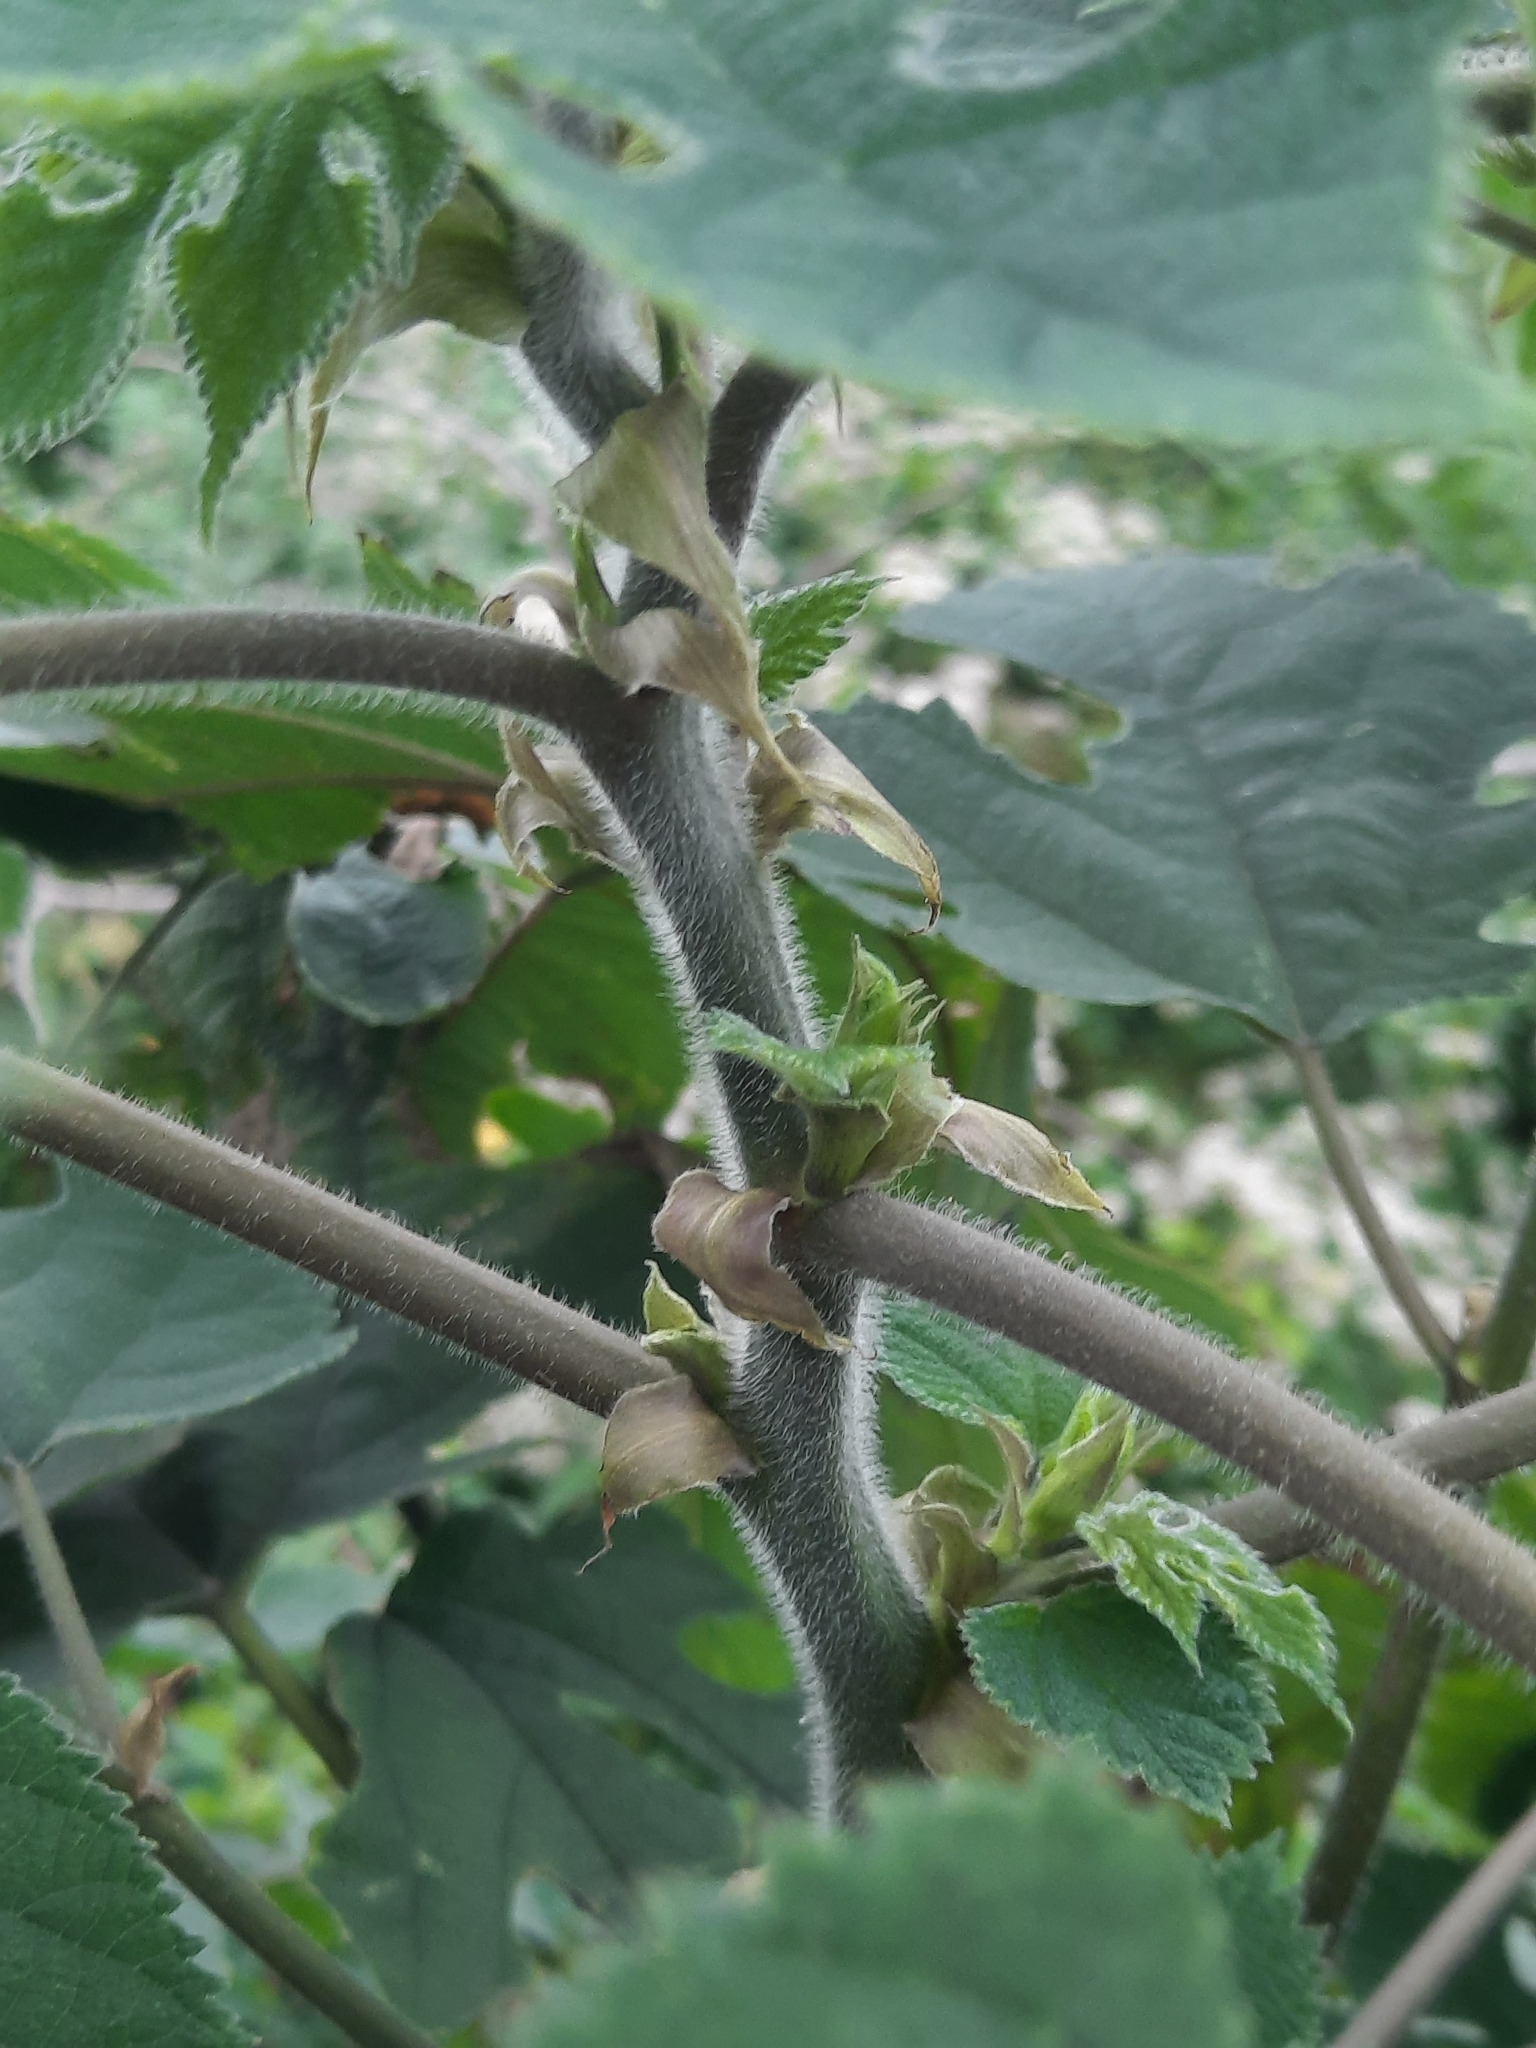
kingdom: Plantae
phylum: Tracheophyta
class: Magnoliopsida
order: Rosales
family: Moraceae
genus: Broussonetia
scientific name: Broussonetia papyrifera
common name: Paper mulberry
